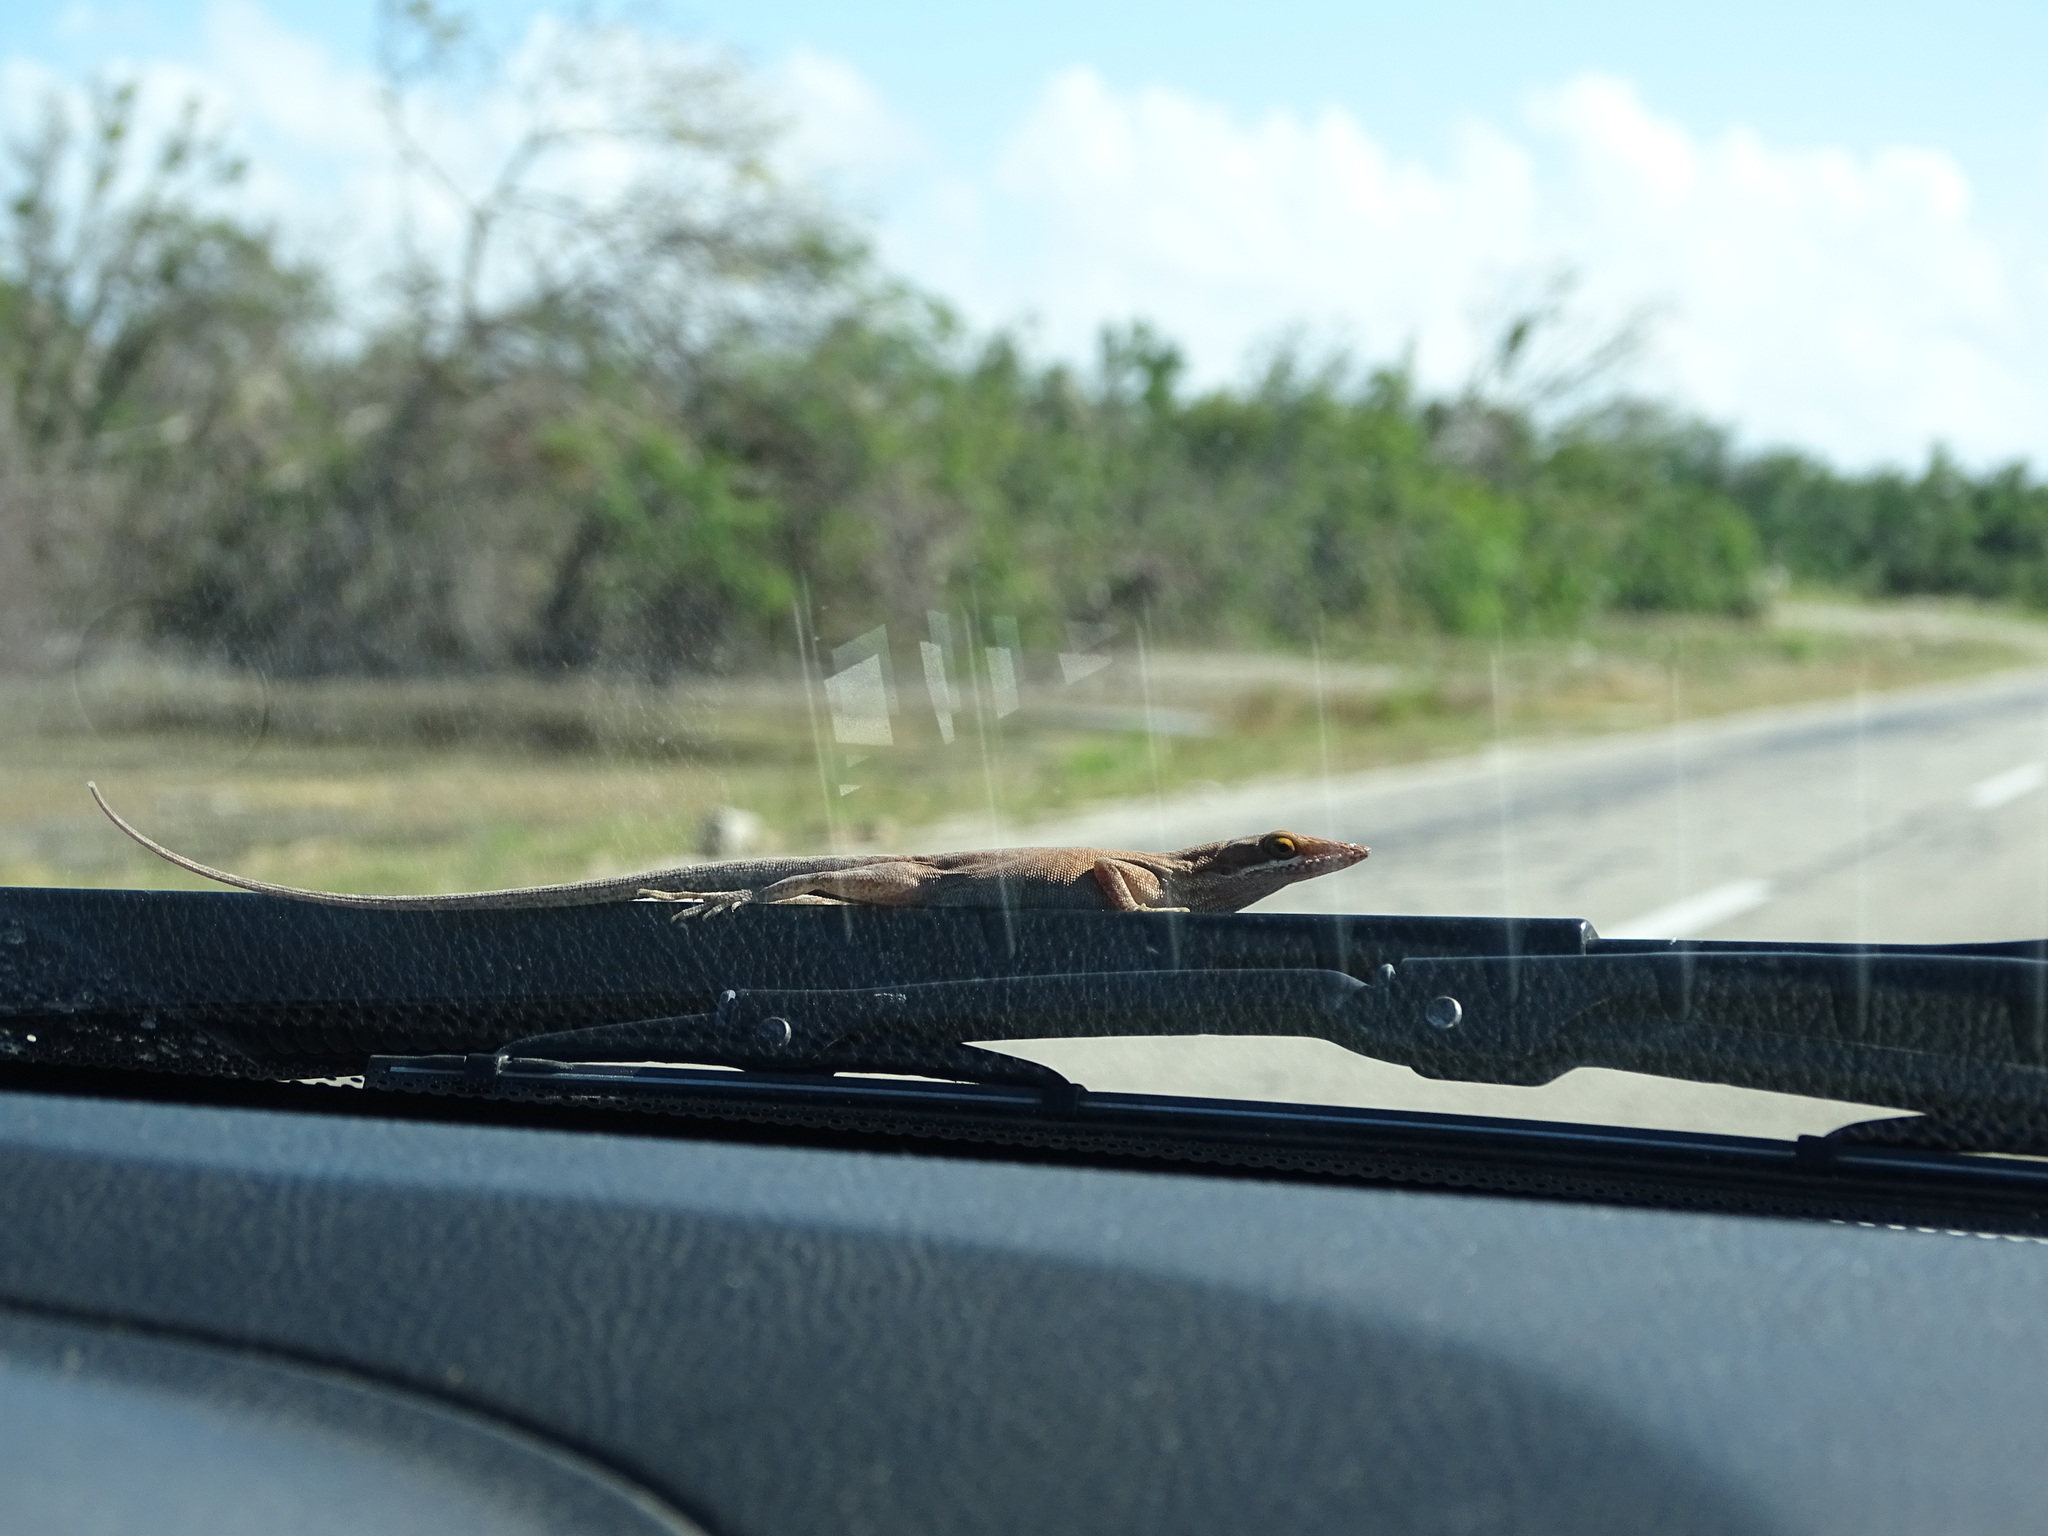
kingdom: Animalia
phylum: Chordata
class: Squamata
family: Dactyloidae
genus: Anolis
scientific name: Anolis porcatus
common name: Cuban green anole
